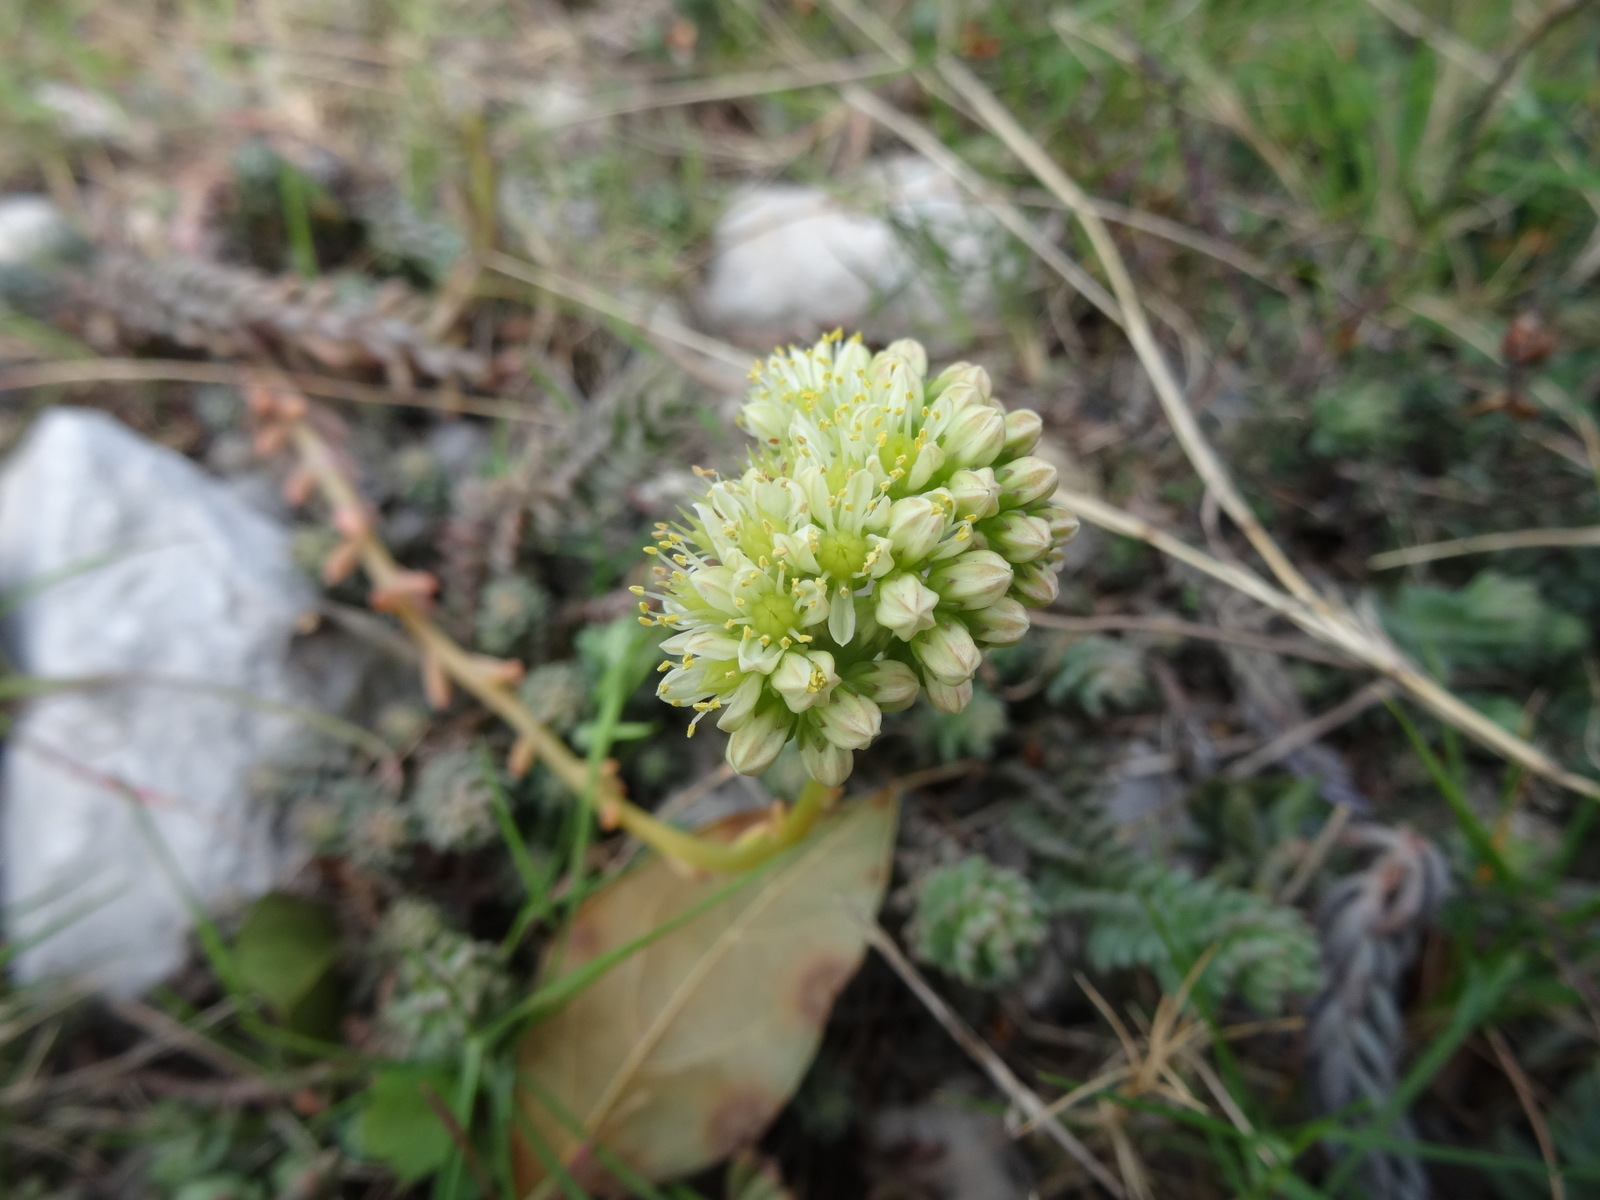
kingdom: Plantae
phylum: Tracheophyta
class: Magnoliopsida
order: Saxifragales
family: Crassulaceae
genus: Petrosedum
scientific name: Petrosedum sediforme
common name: Pale stonecrop
